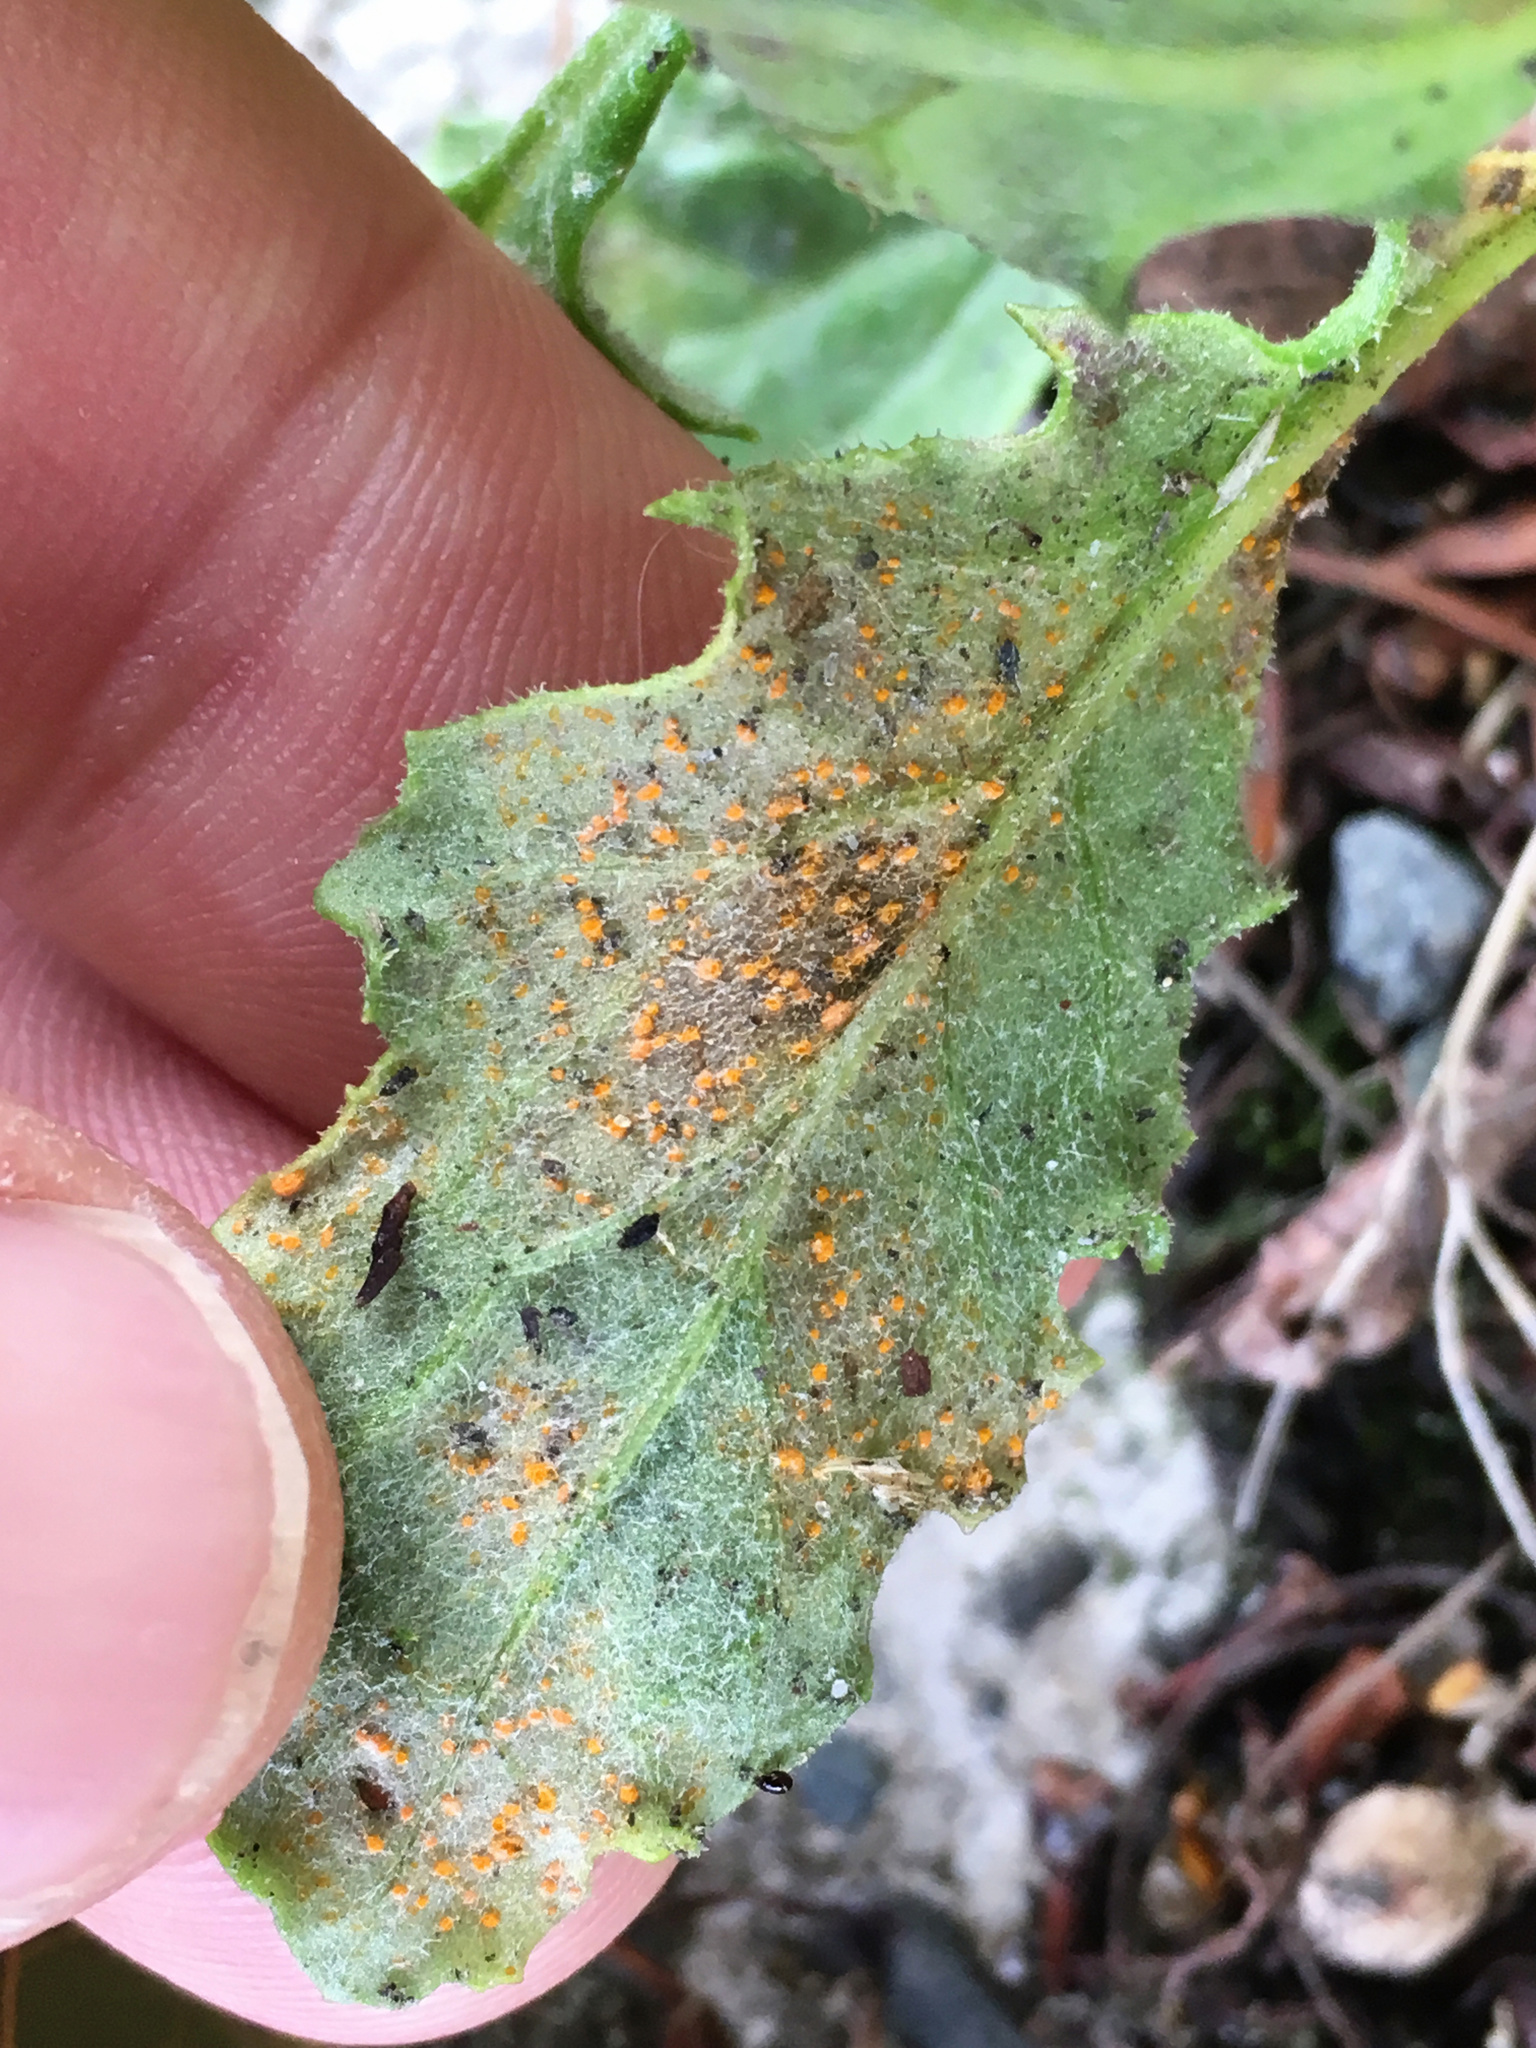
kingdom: Fungi
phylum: Basidiomycota
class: Pucciniomycetes
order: Pucciniales
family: Coleosporiaceae
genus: Coleosporium
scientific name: Coleosporium tussilaginis
